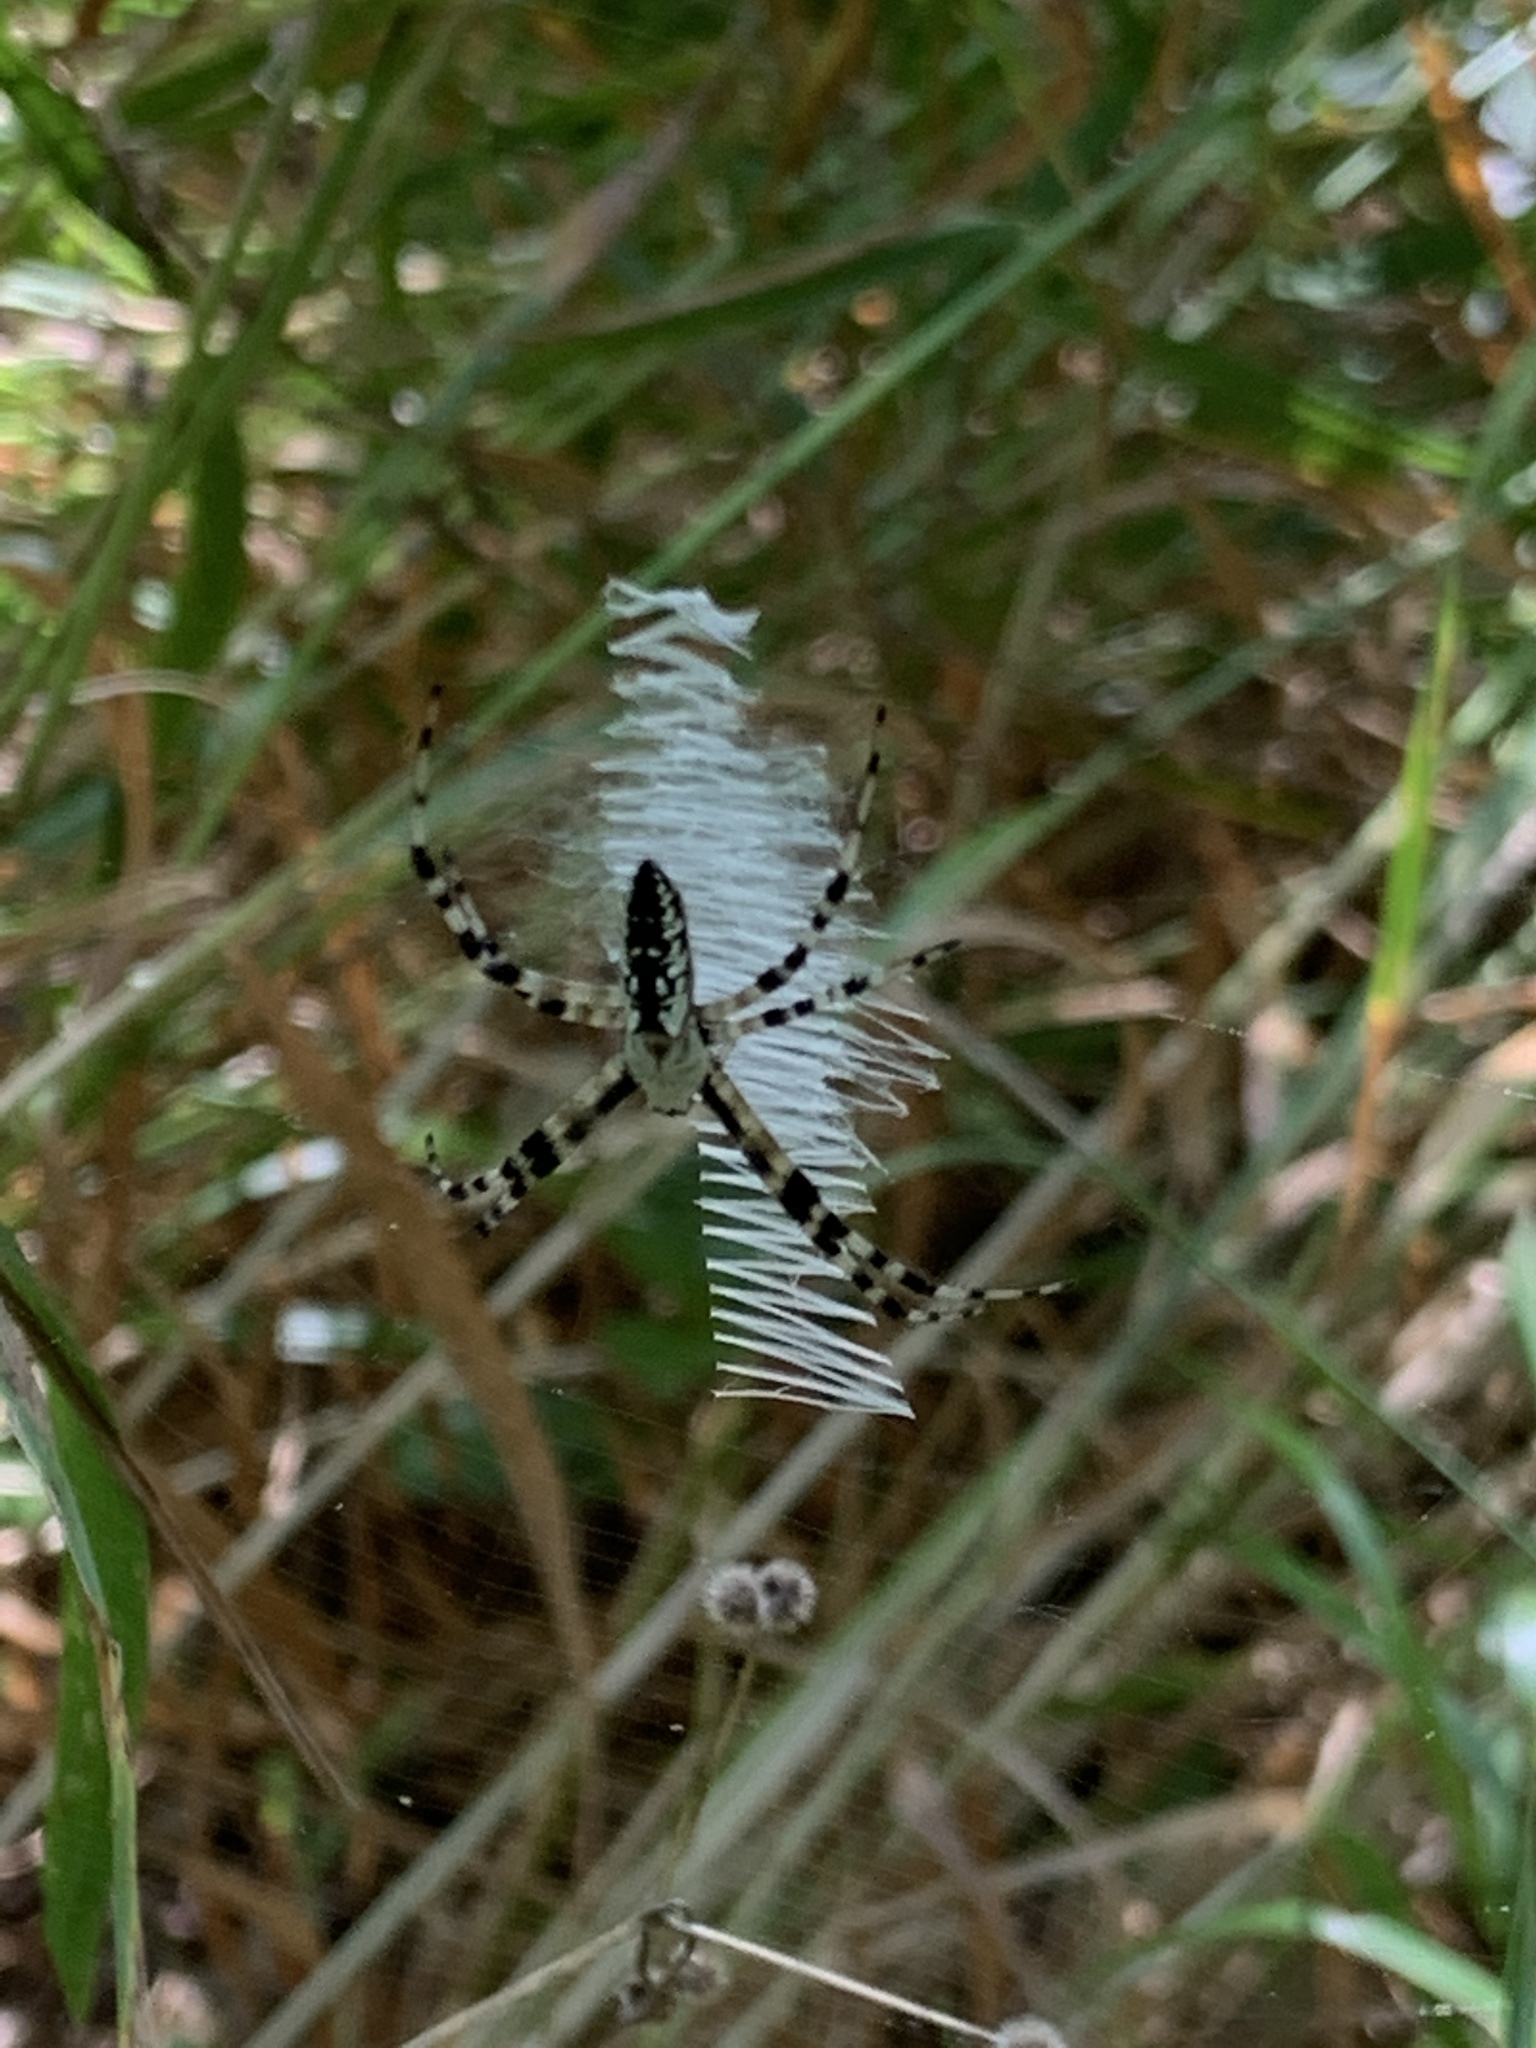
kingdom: Animalia
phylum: Arthropoda
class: Arachnida
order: Araneae
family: Araneidae
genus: Argiope
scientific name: Argiope aurantia
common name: Orb weavers
